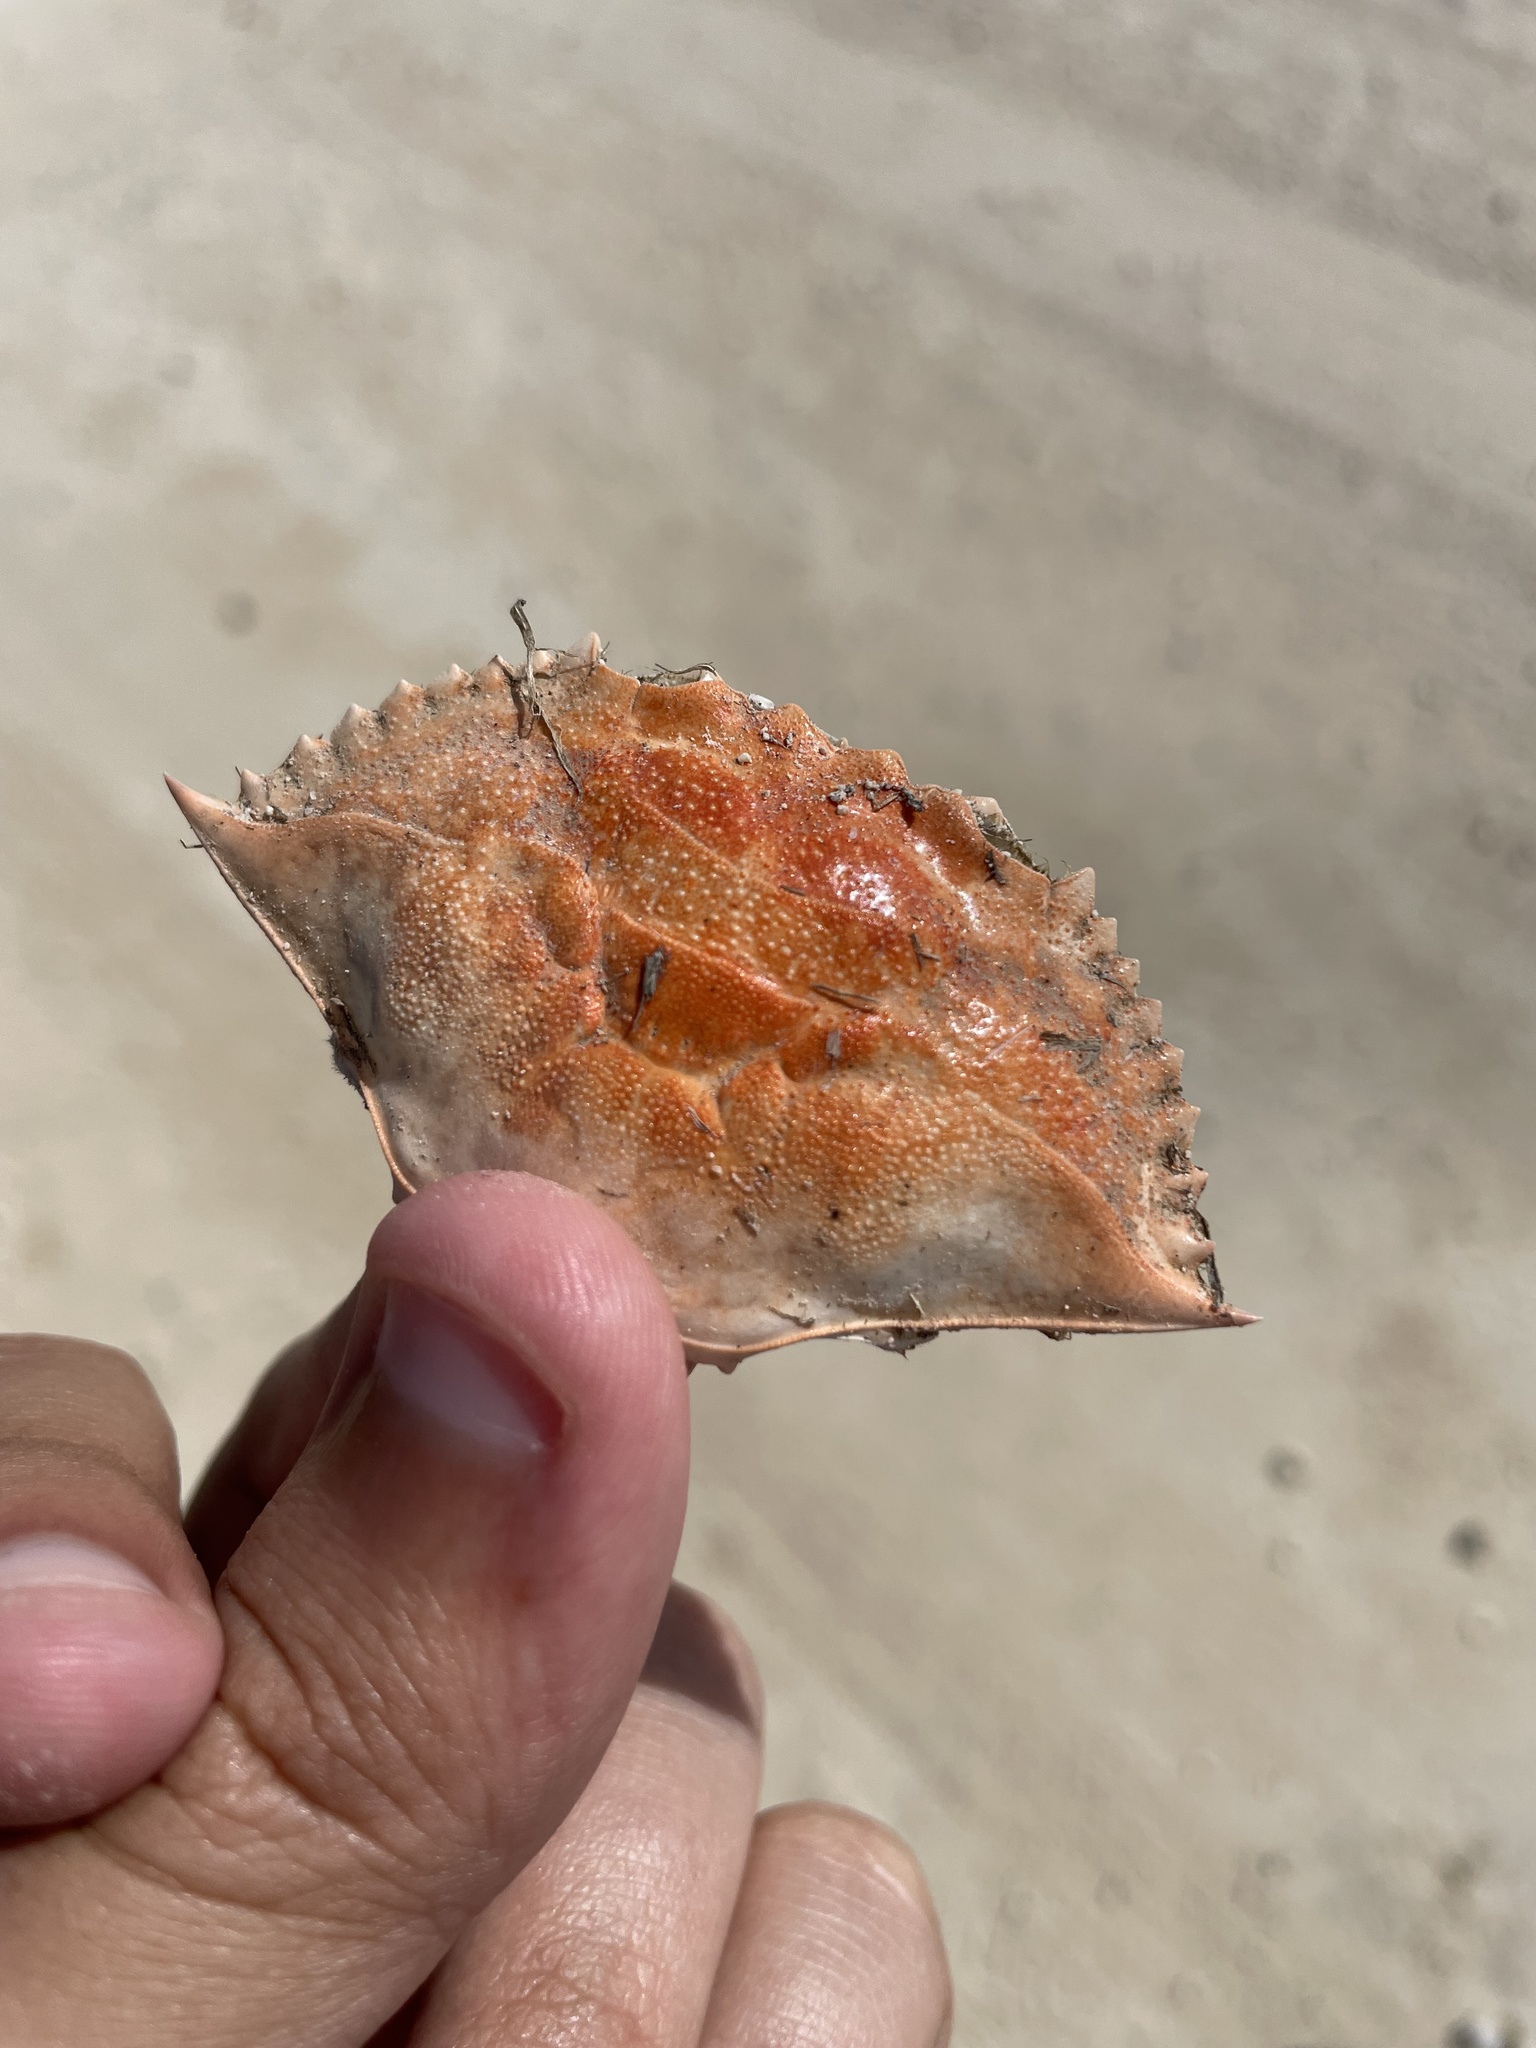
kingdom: Animalia
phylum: Arthropoda
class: Malacostraca
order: Decapoda
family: Portunidae
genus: Callinectes
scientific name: Callinectes sapidus
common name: Blue crab
